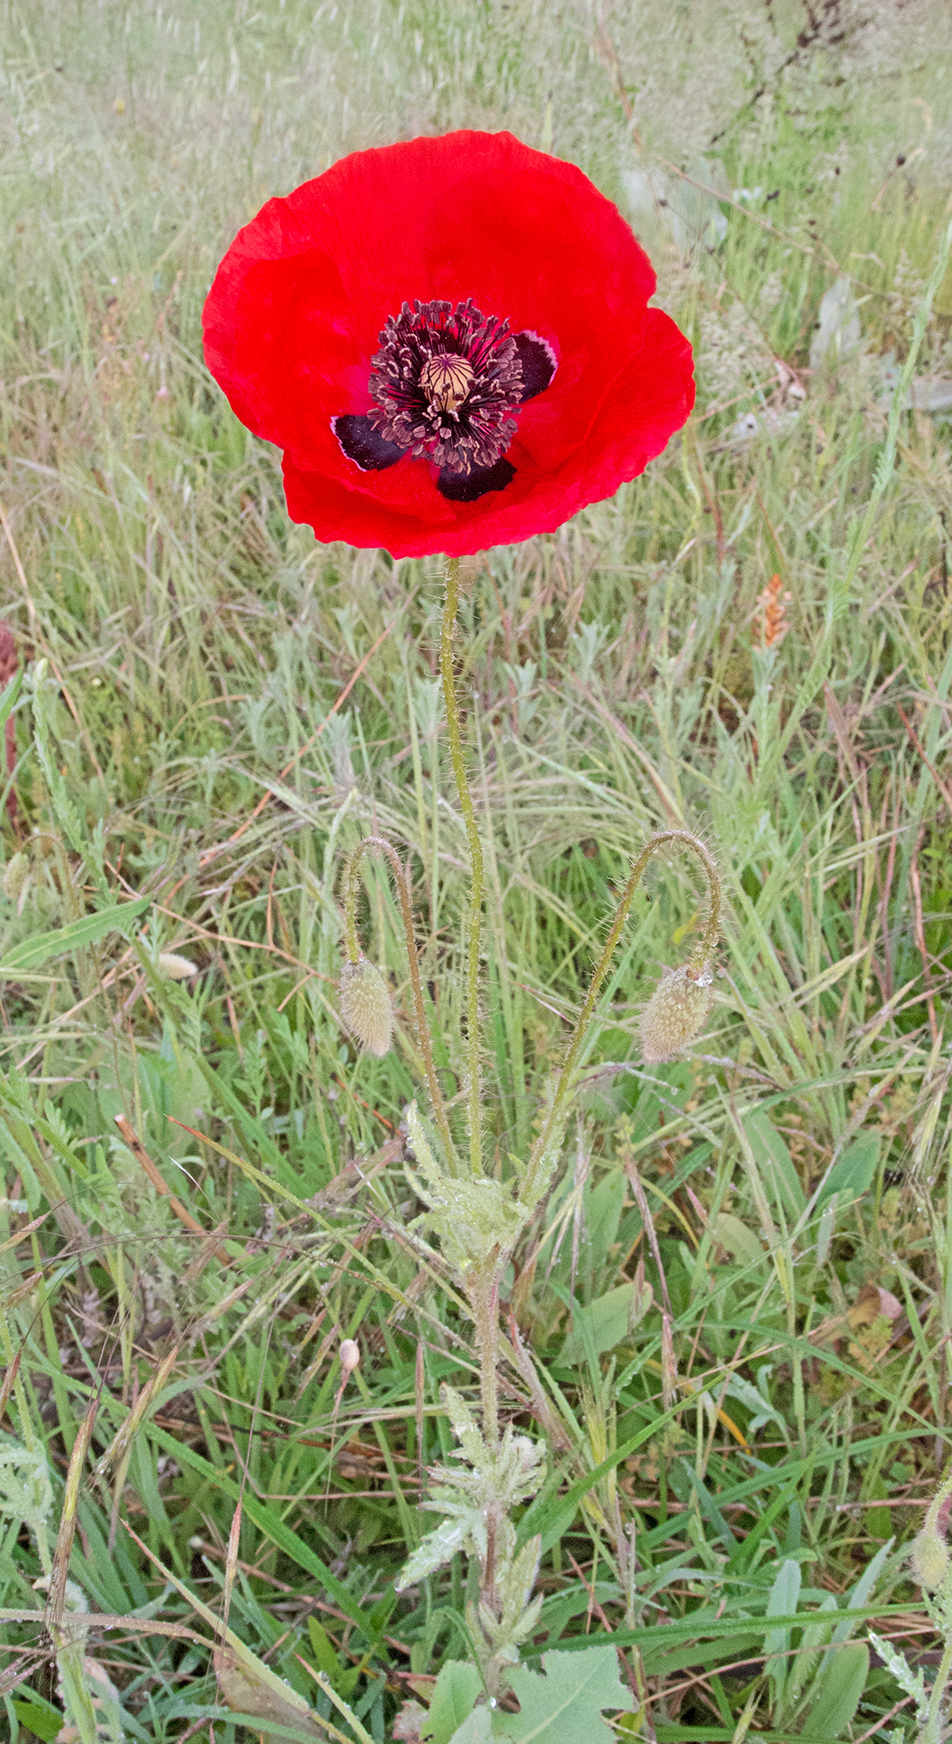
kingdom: Plantae
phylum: Tracheophyta
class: Magnoliopsida
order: Ranunculales
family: Papaveraceae
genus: Papaver
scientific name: Papaver rhoeas
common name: Corn poppy
